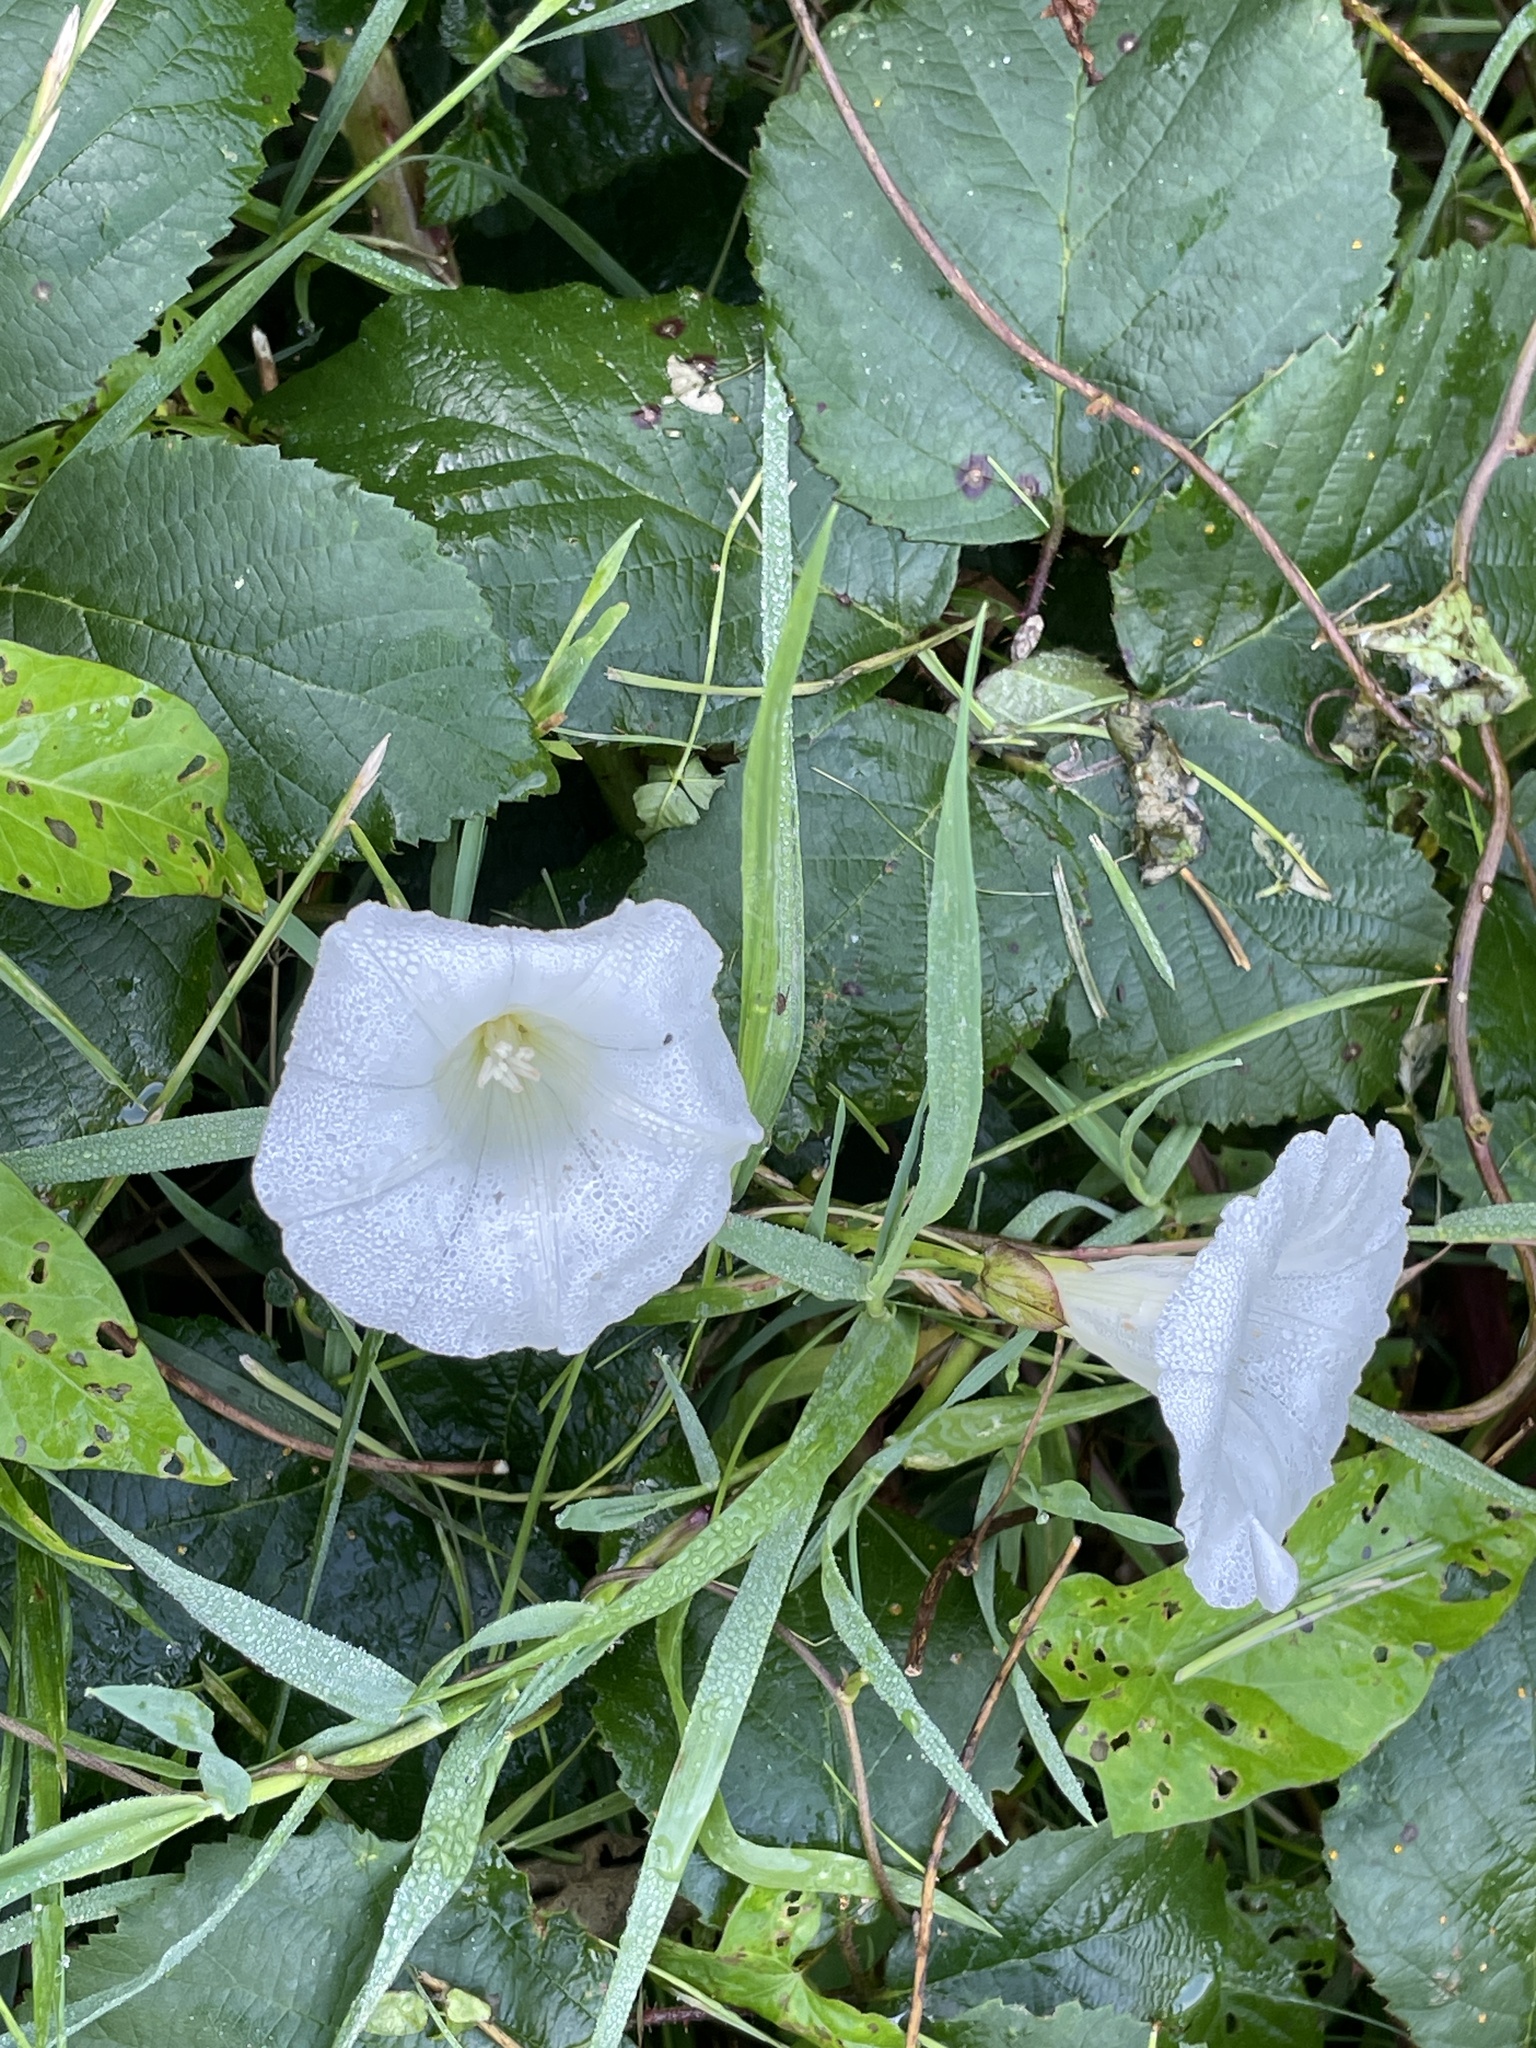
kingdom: Plantae
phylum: Tracheophyta
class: Magnoliopsida
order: Solanales
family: Convolvulaceae
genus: Calystegia
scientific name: Calystegia sepium
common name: Hedge bindweed
